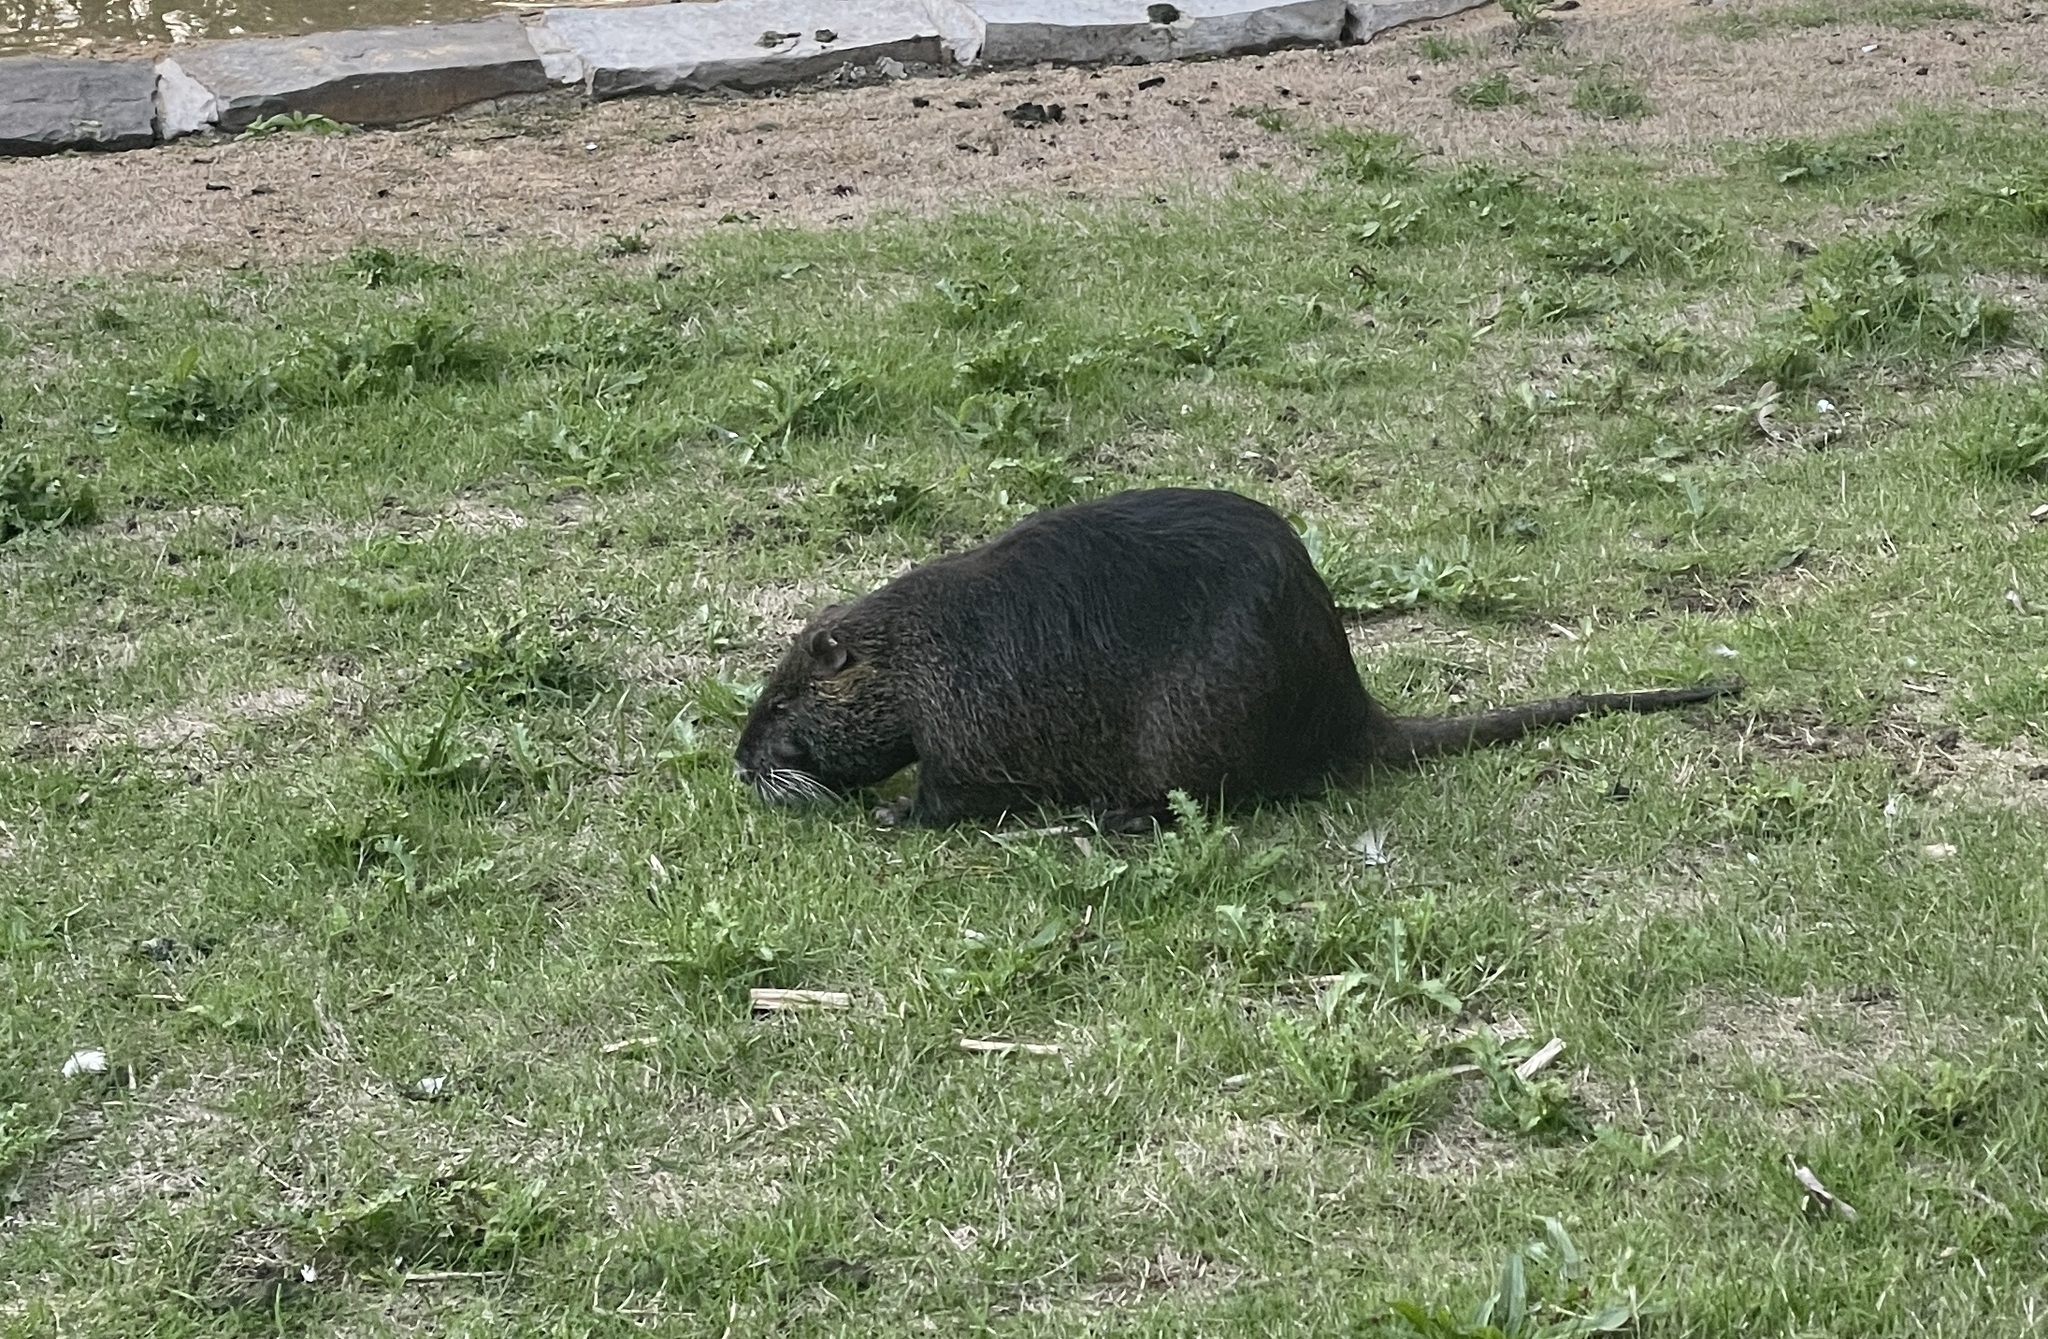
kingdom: Animalia
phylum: Chordata
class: Mammalia
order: Rodentia
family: Myocastoridae
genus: Myocastor
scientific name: Myocastor coypus
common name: Coypu
